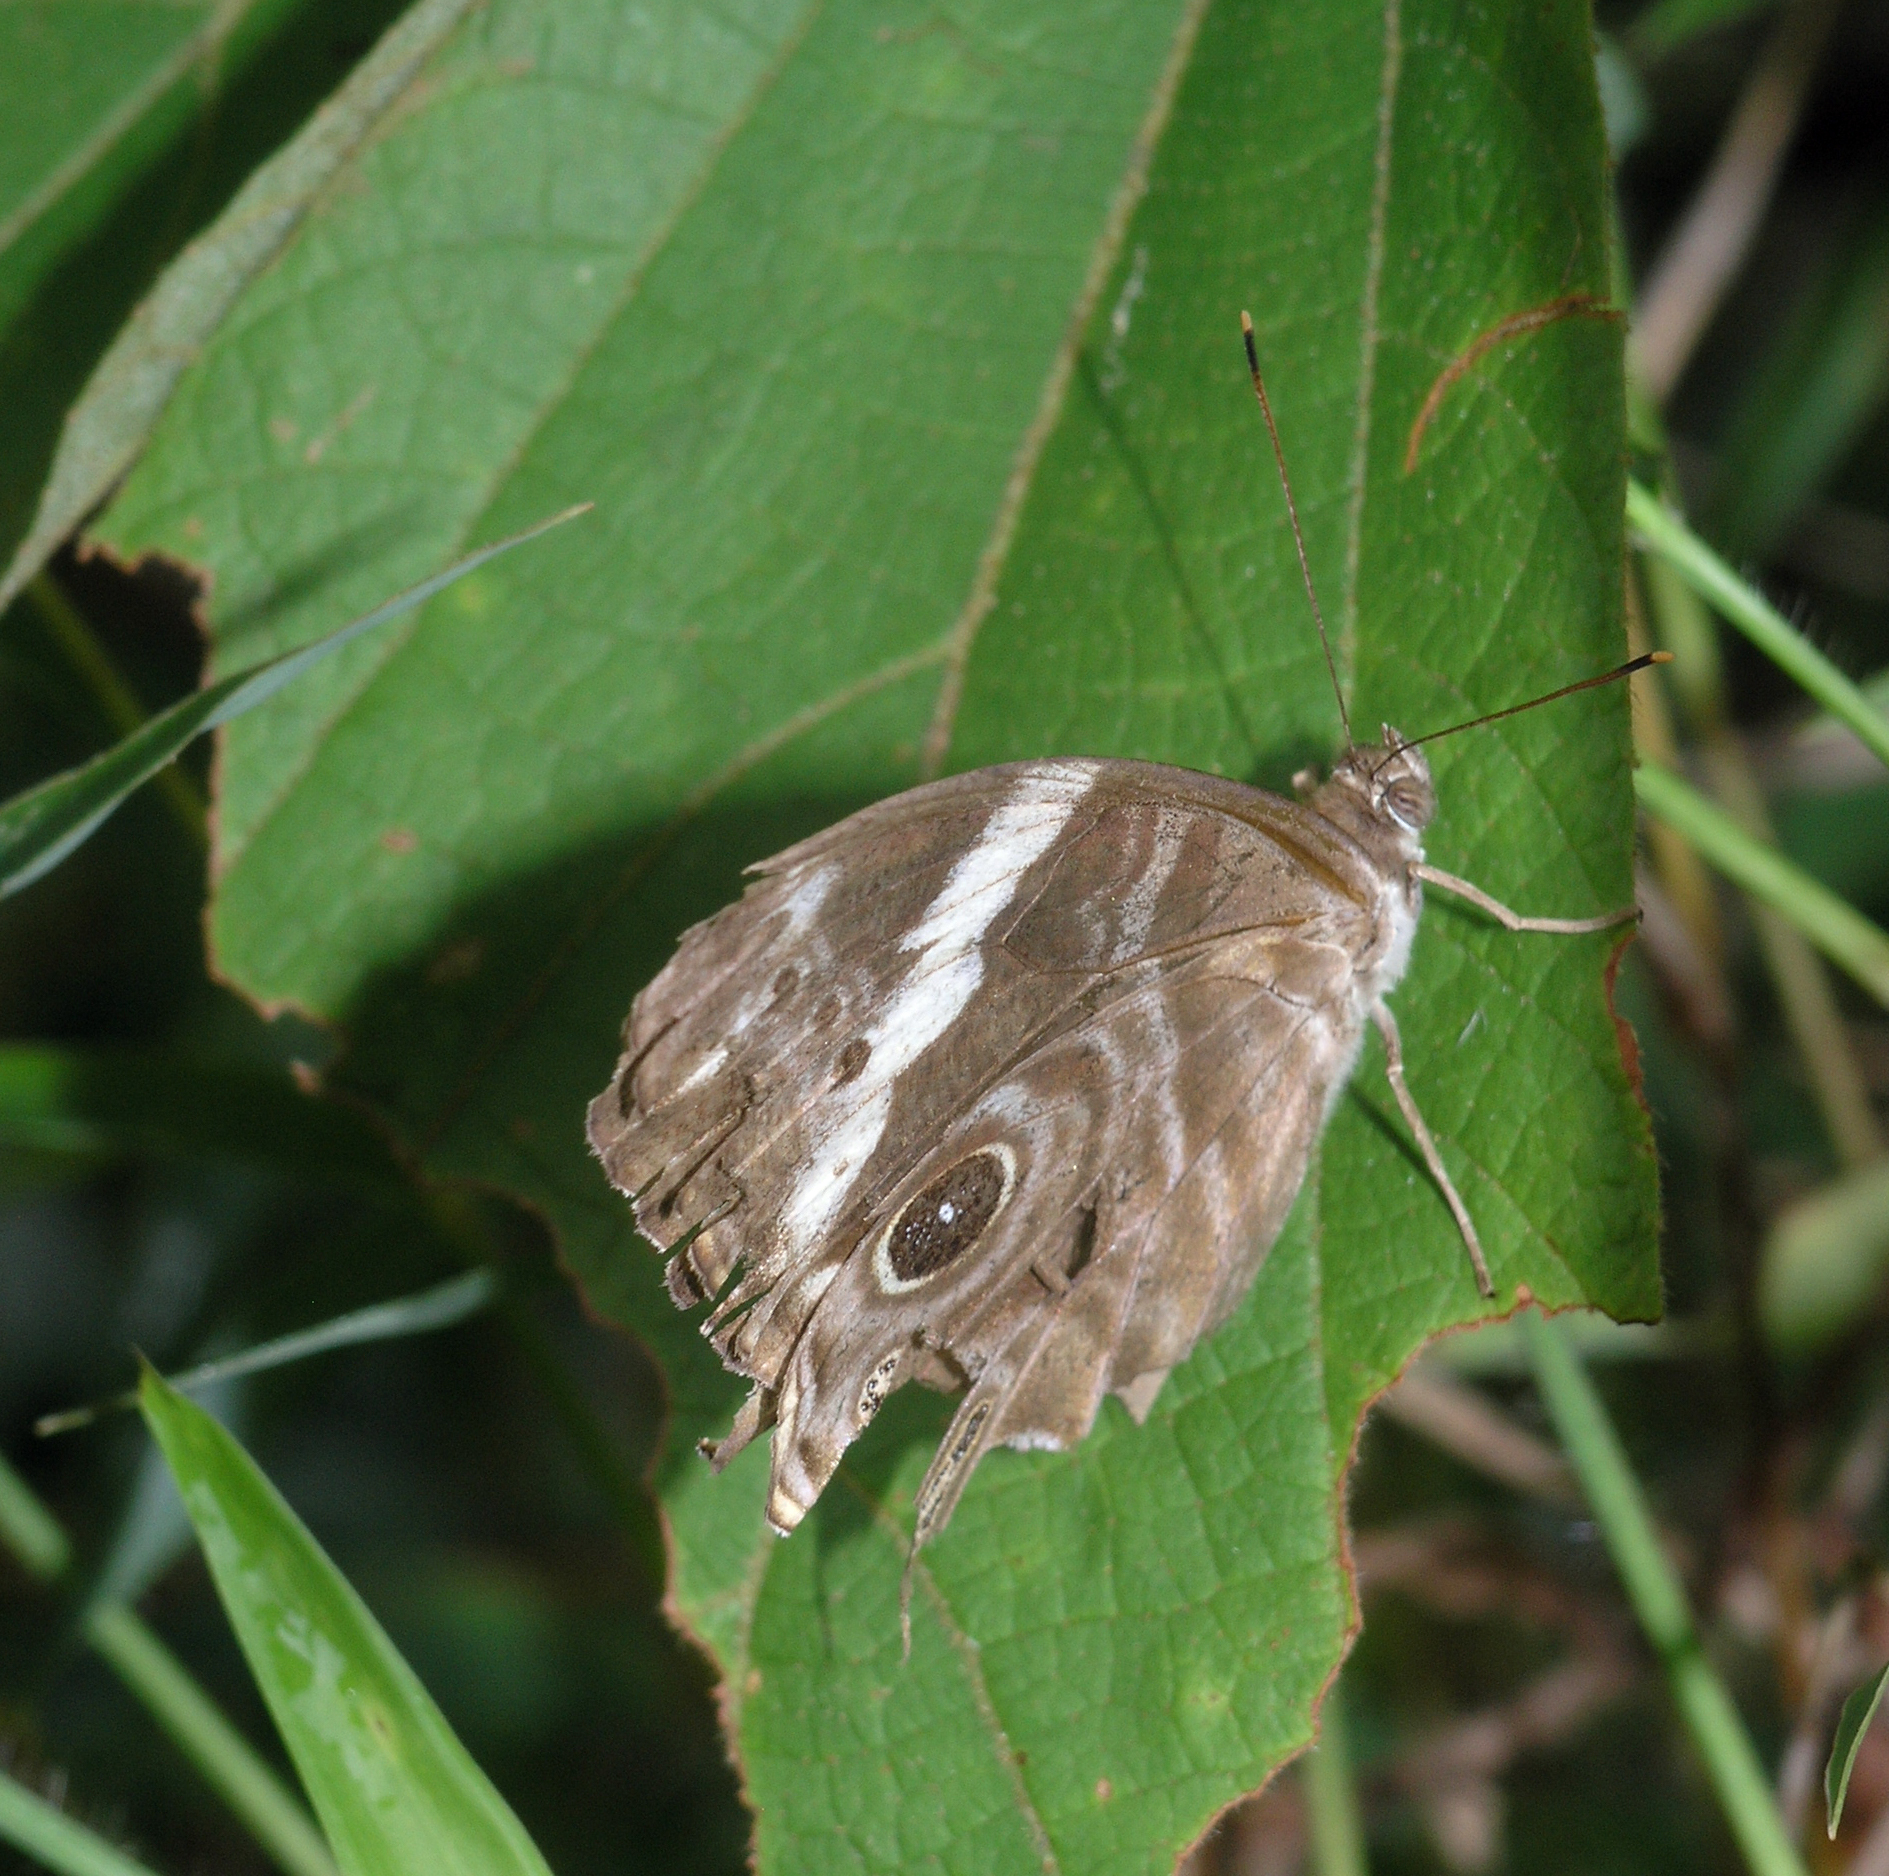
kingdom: Animalia
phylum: Arthropoda
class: Insecta
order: Lepidoptera
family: Nymphalidae
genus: Lethe
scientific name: Lethe rohria
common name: Common treebrown
